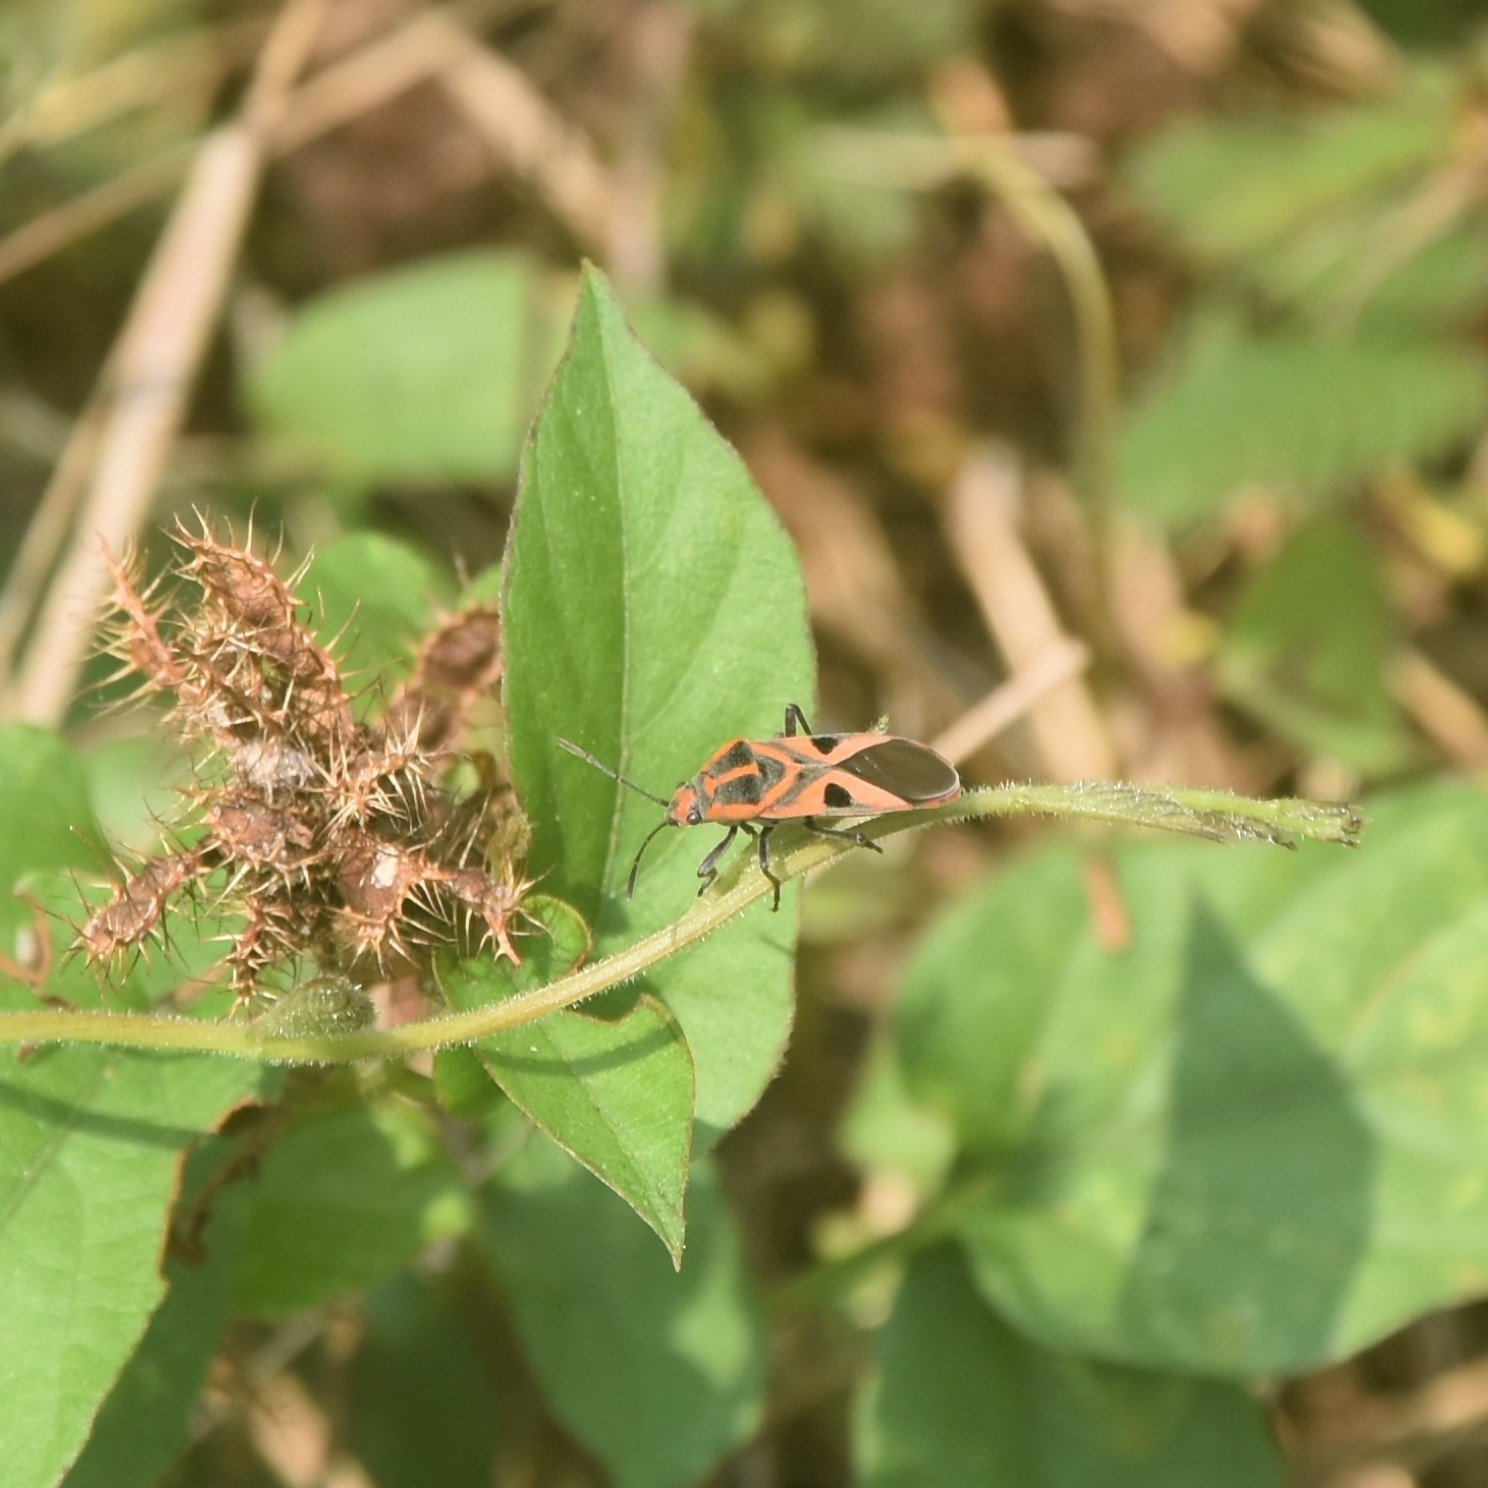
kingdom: Animalia
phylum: Arthropoda
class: Insecta
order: Hemiptera
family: Lygaeidae
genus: Spilostethus
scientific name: Spilostethus hospes
